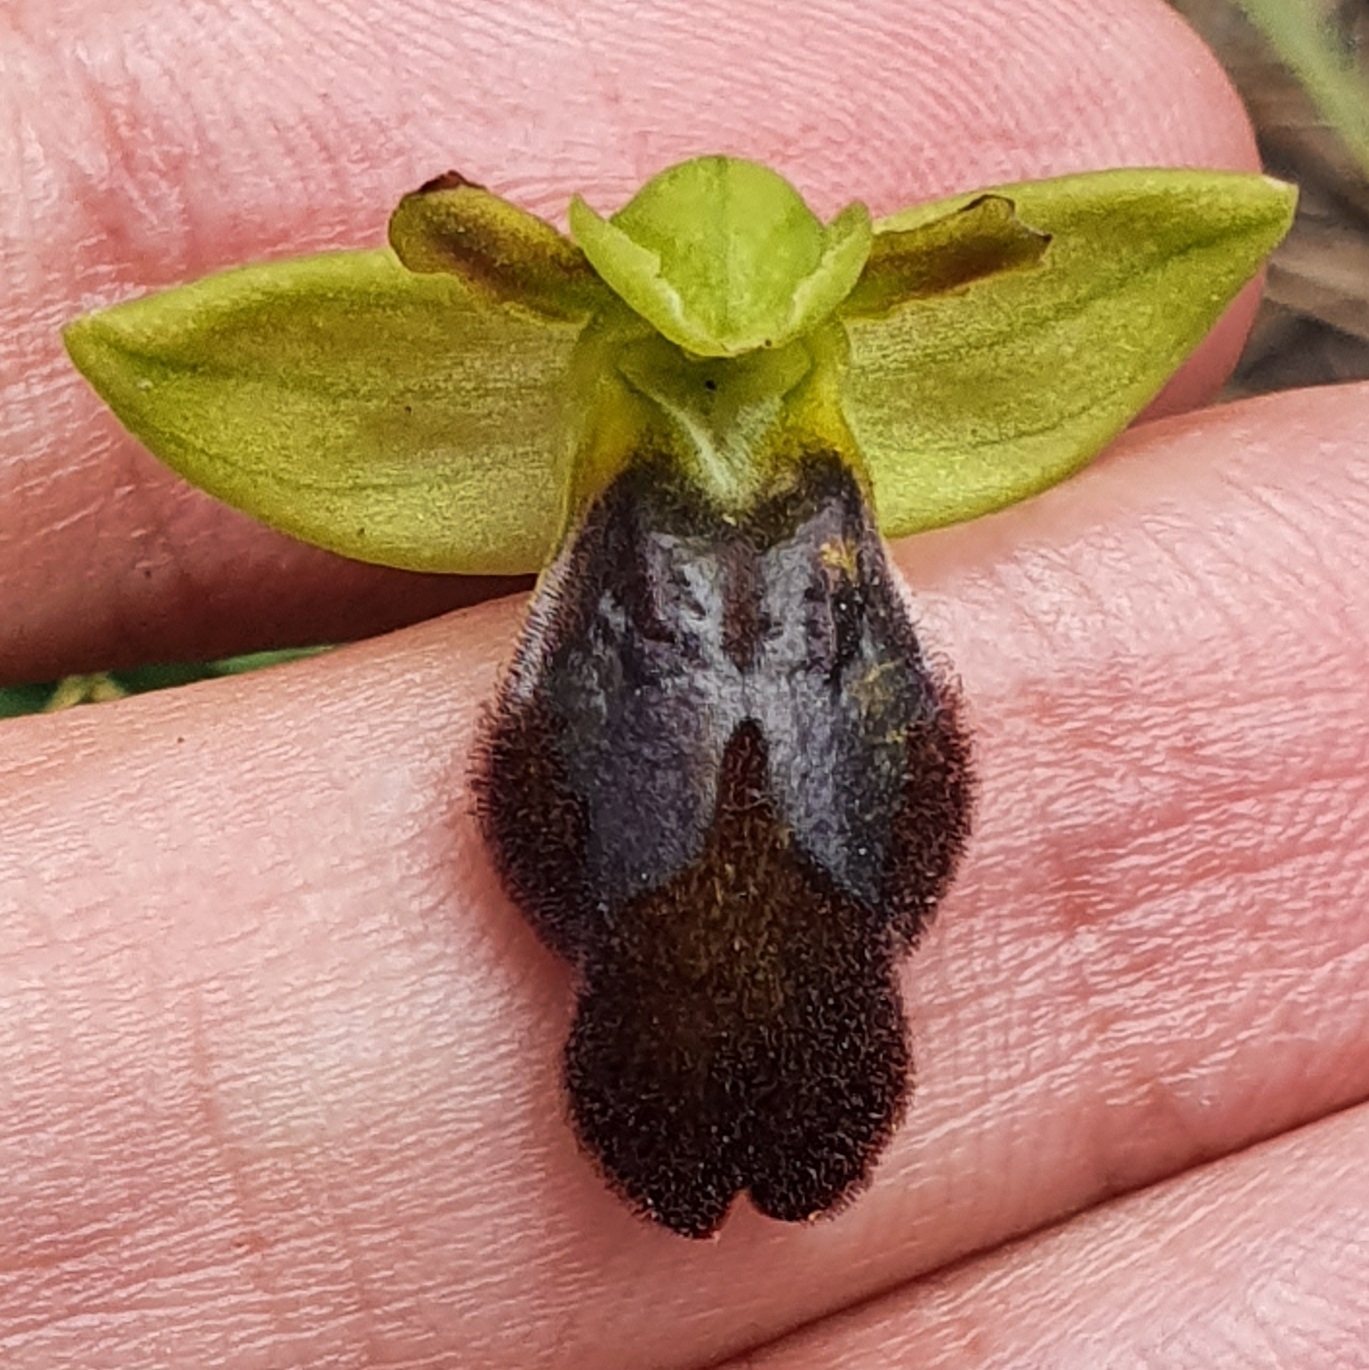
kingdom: Plantae
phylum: Tracheophyta
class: Liliopsida
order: Asparagales
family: Orchidaceae
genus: Ophrys
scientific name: Ophrys fusca
